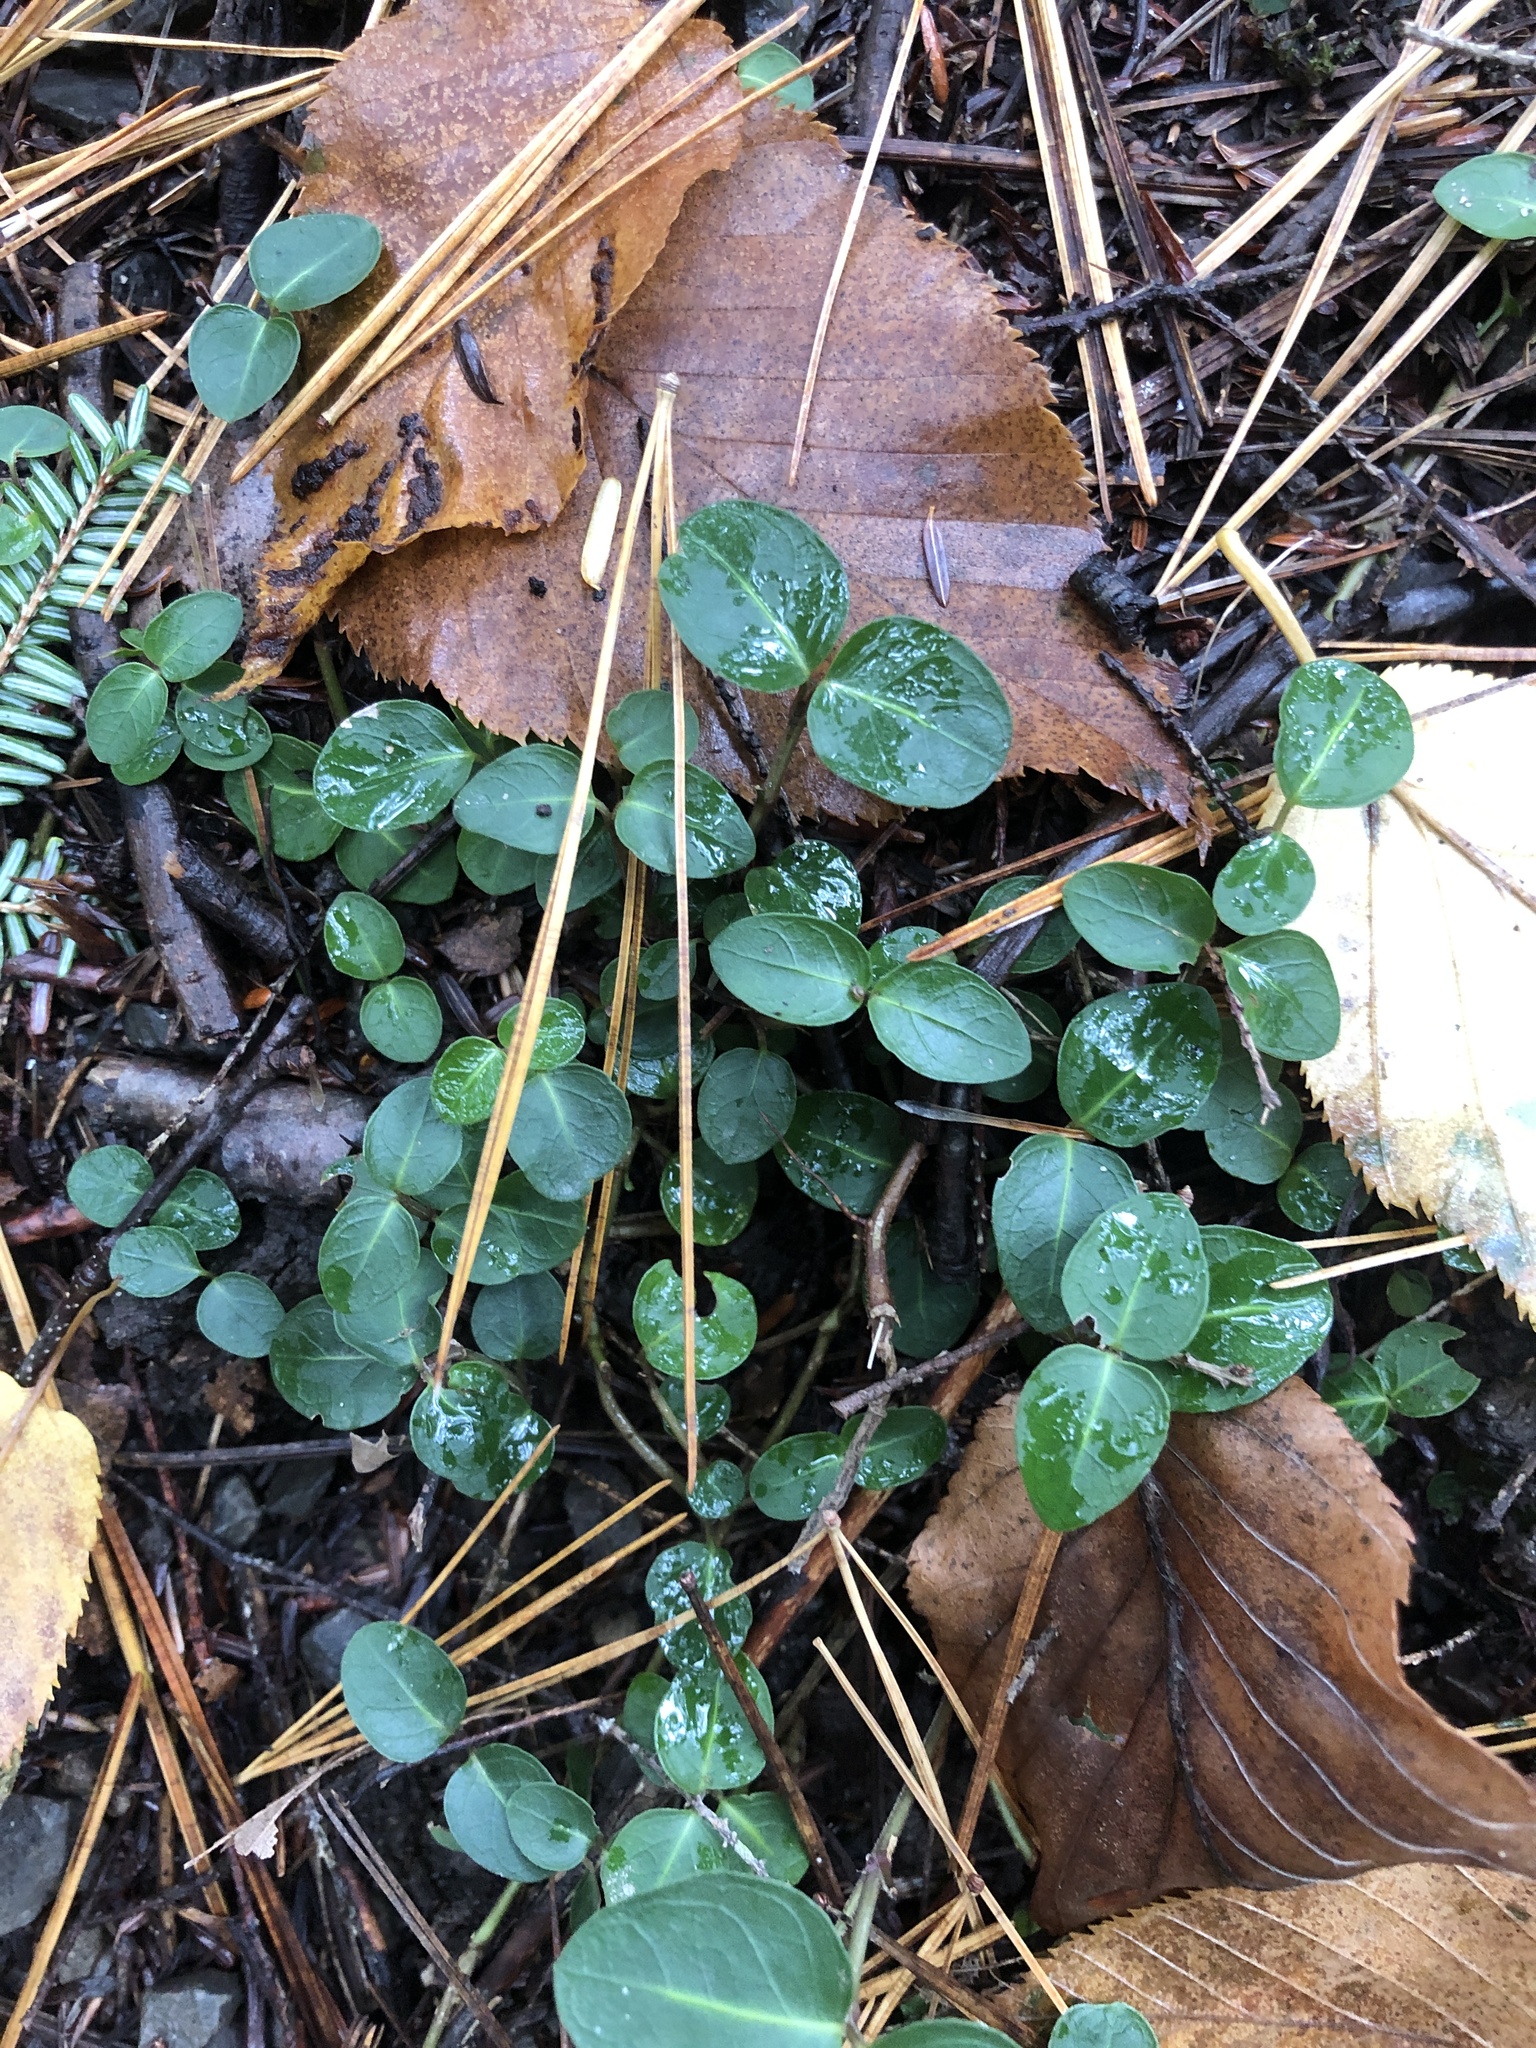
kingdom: Plantae
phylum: Tracheophyta
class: Magnoliopsida
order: Gentianales
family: Rubiaceae
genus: Mitchella
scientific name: Mitchella repens
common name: Partridge-berry
